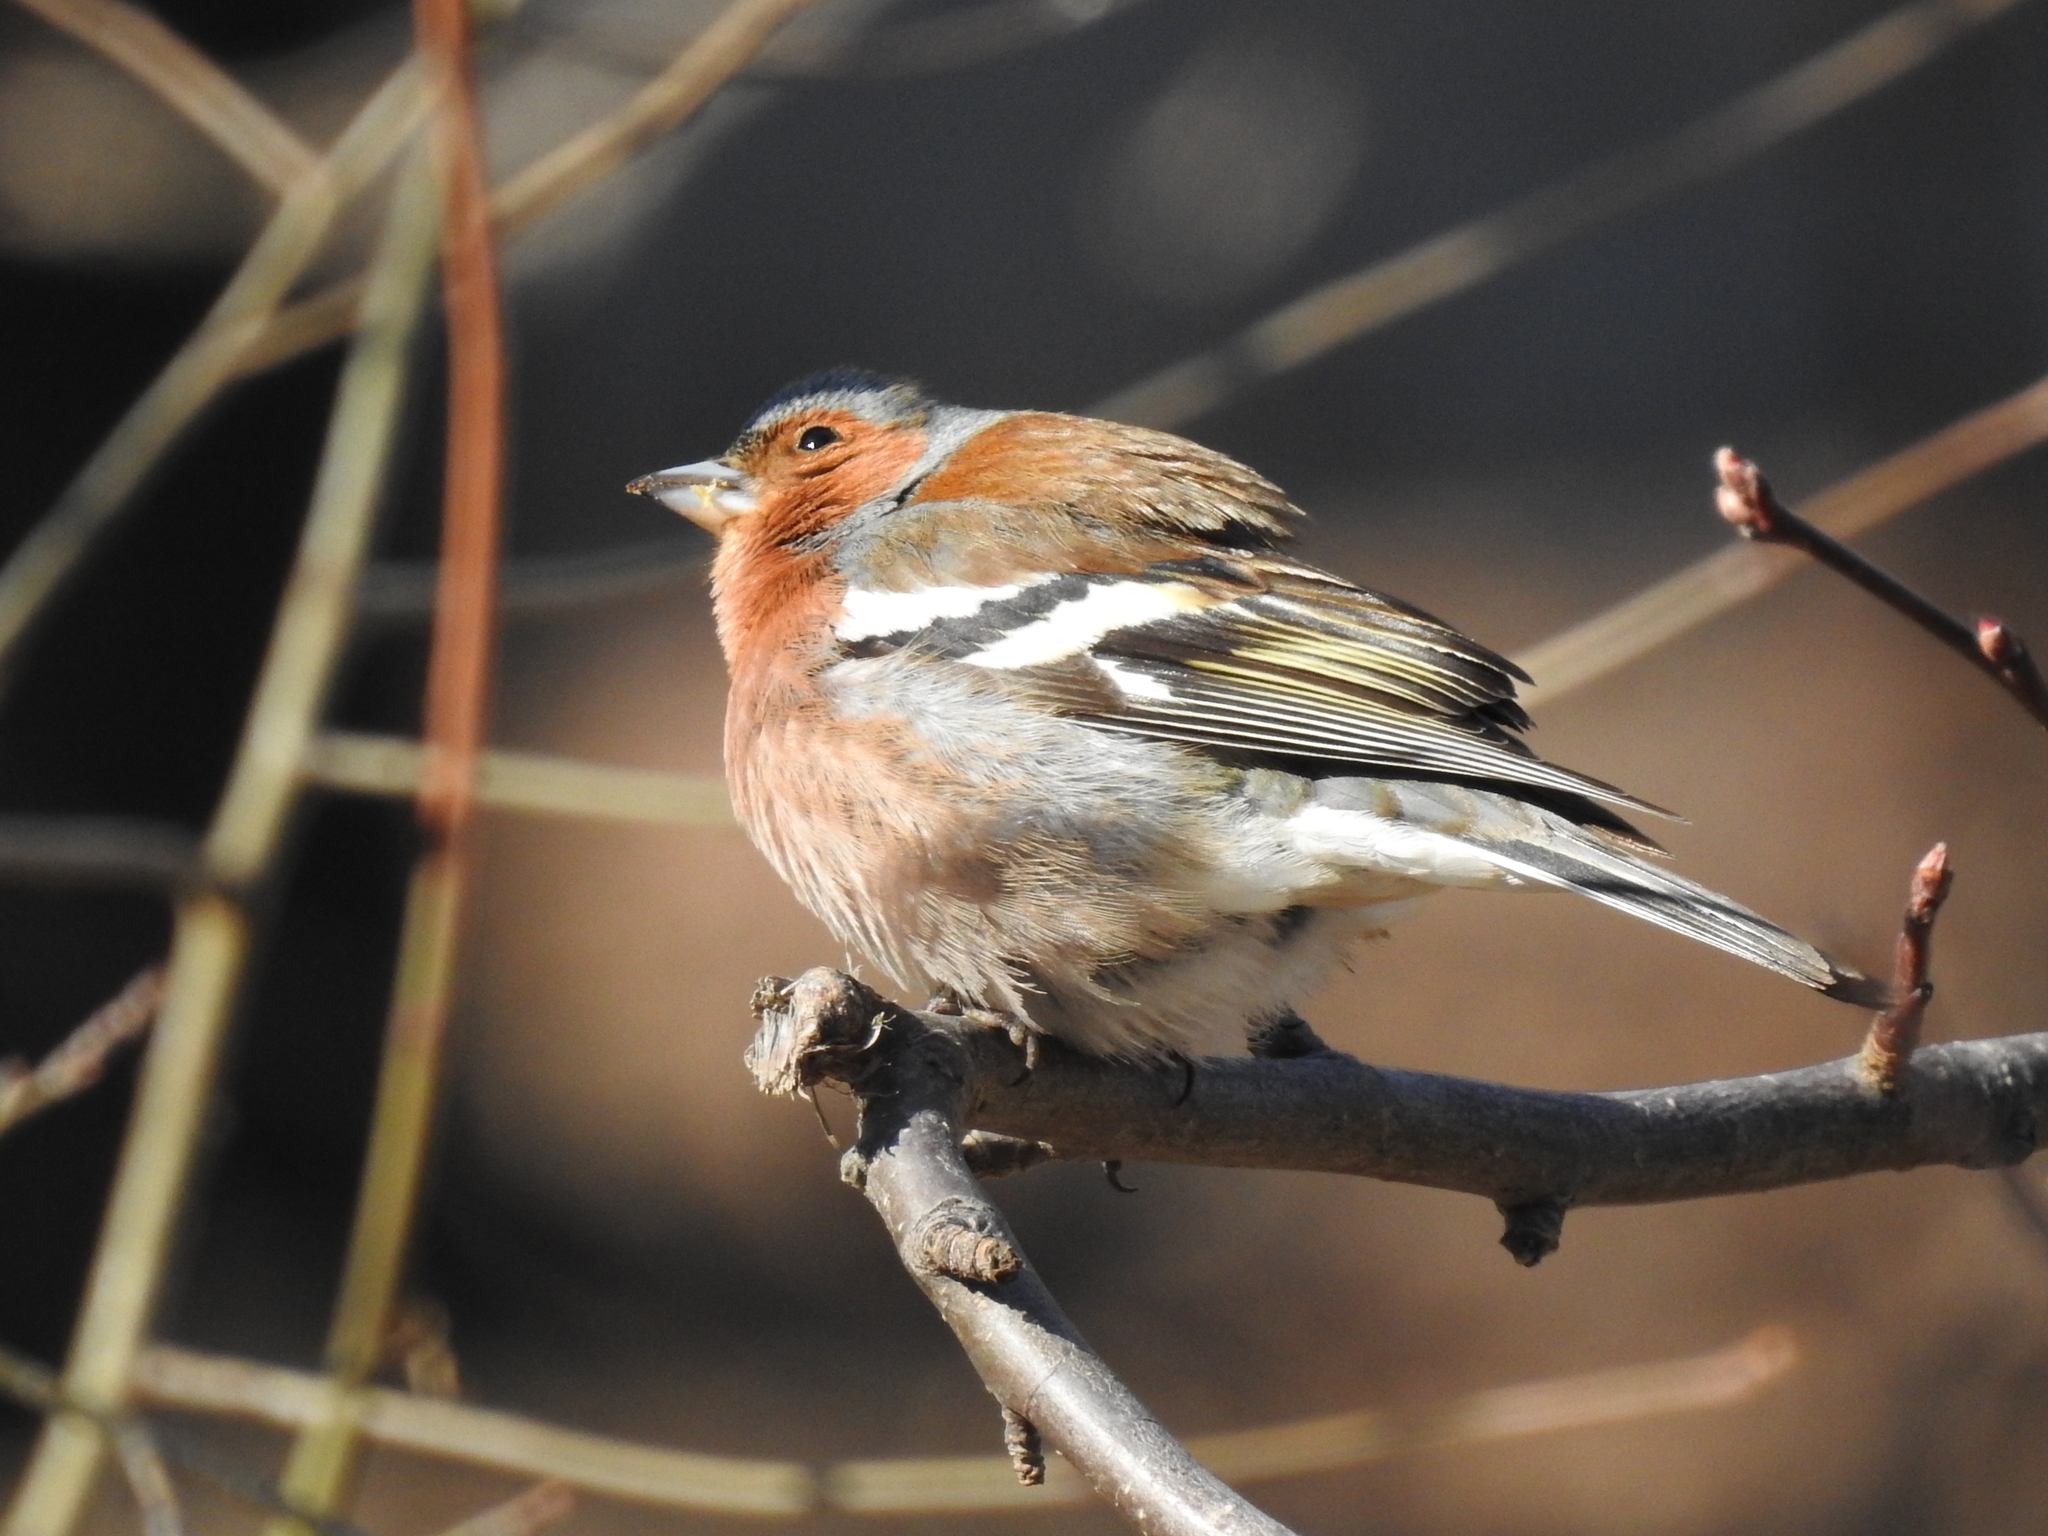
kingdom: Animalia
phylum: Chordata
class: Aves
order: Passeriformes
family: Fringillidae
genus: Fringilla
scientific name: Fringilla coelebs
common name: Common chaffinch
